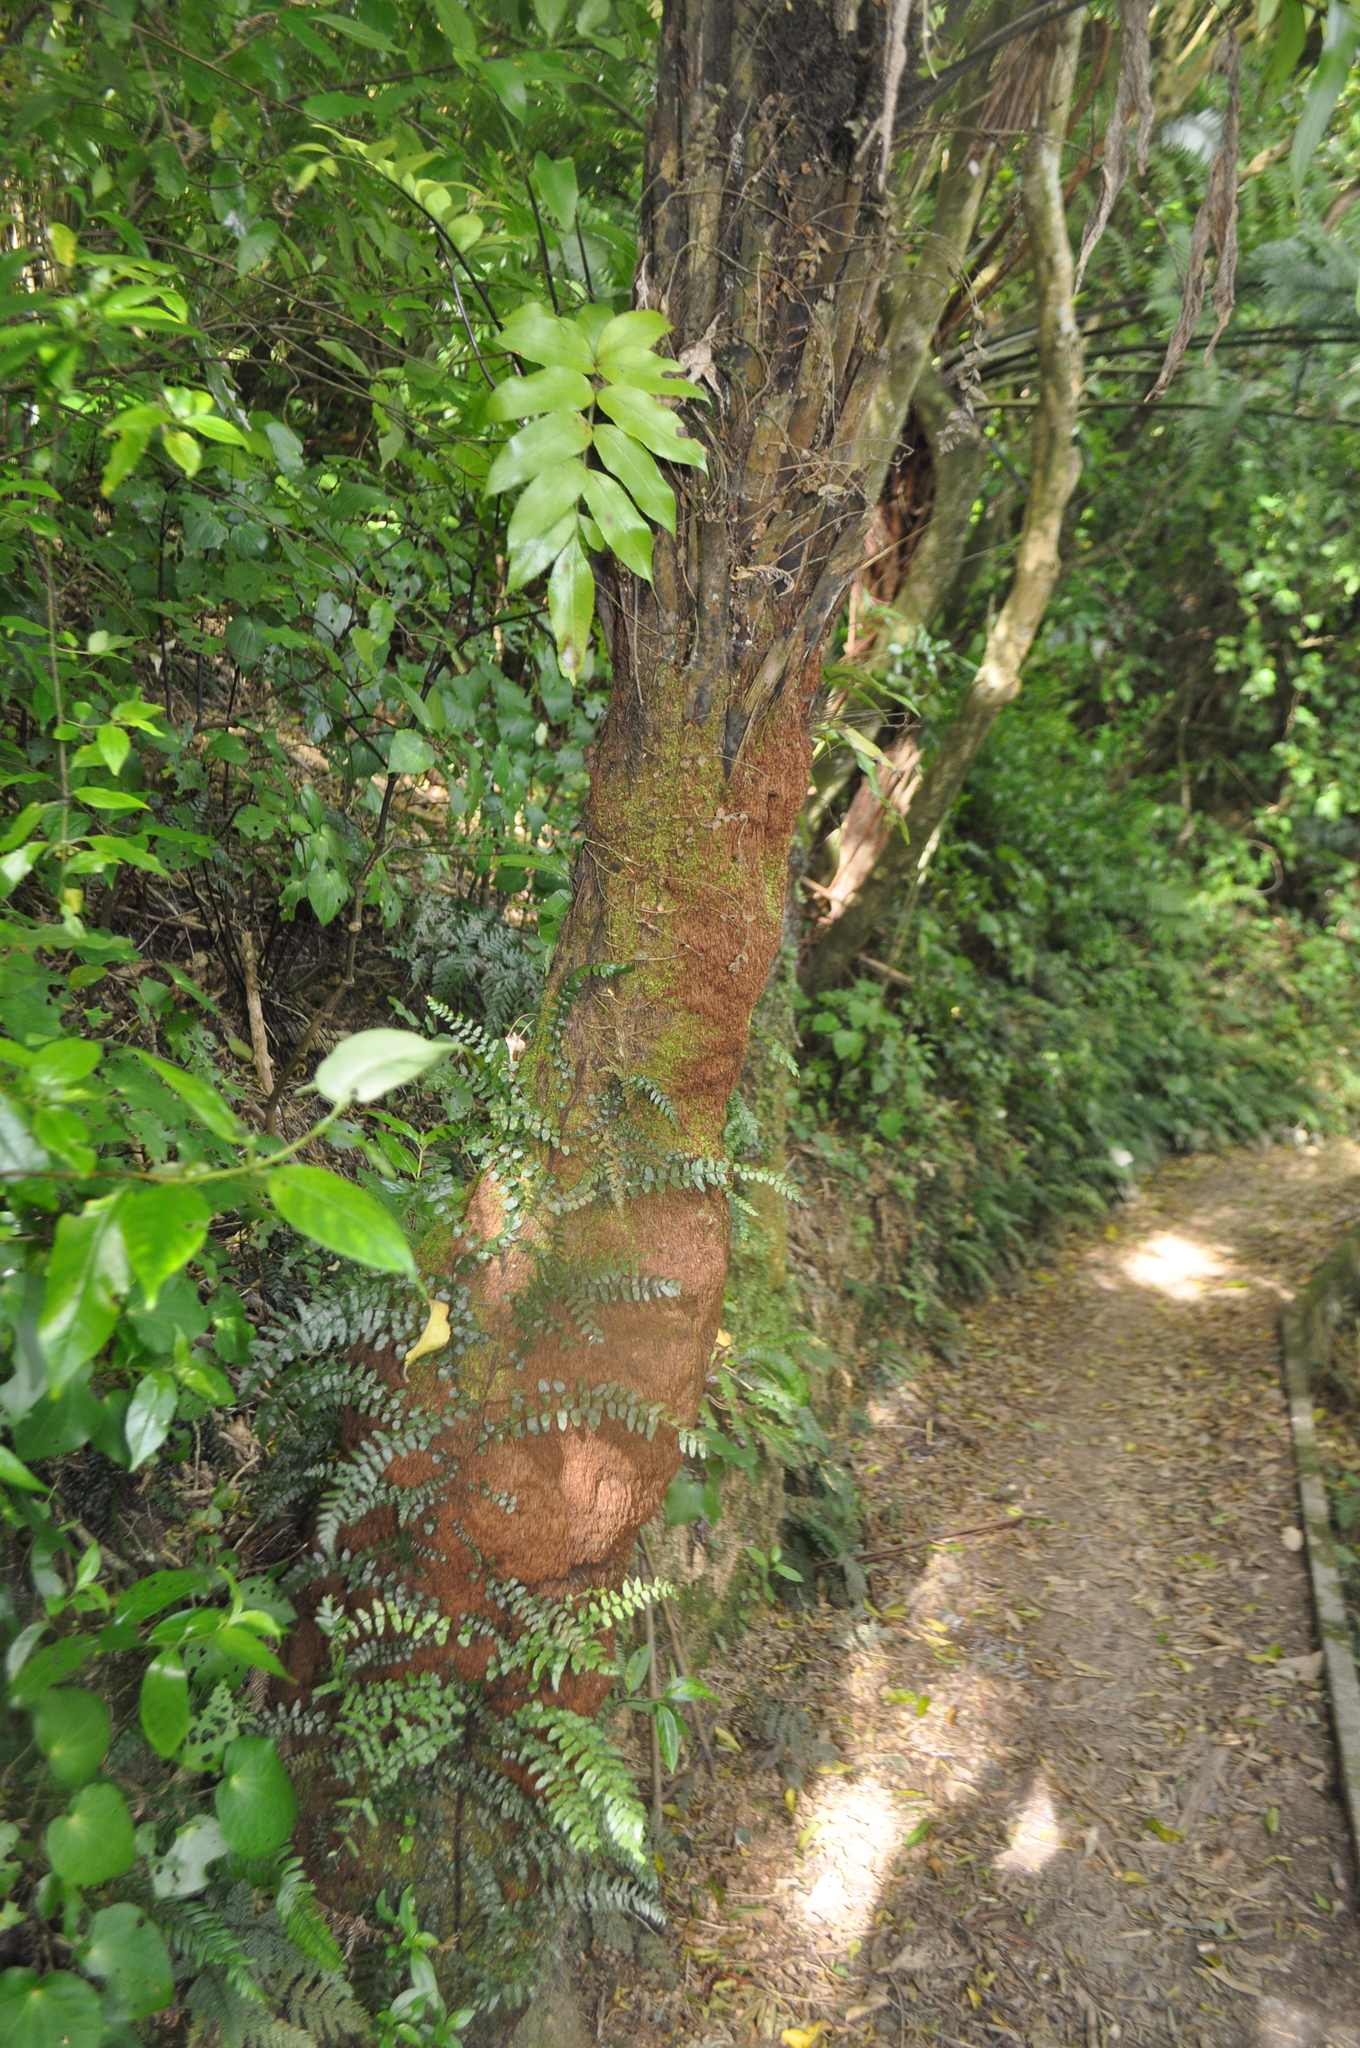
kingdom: Plantae
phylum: Tracheophyta
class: Polypodiopsida
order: Cyatheales
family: Cyatheaceae
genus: Alsophila
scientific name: Alsophila dealbata
